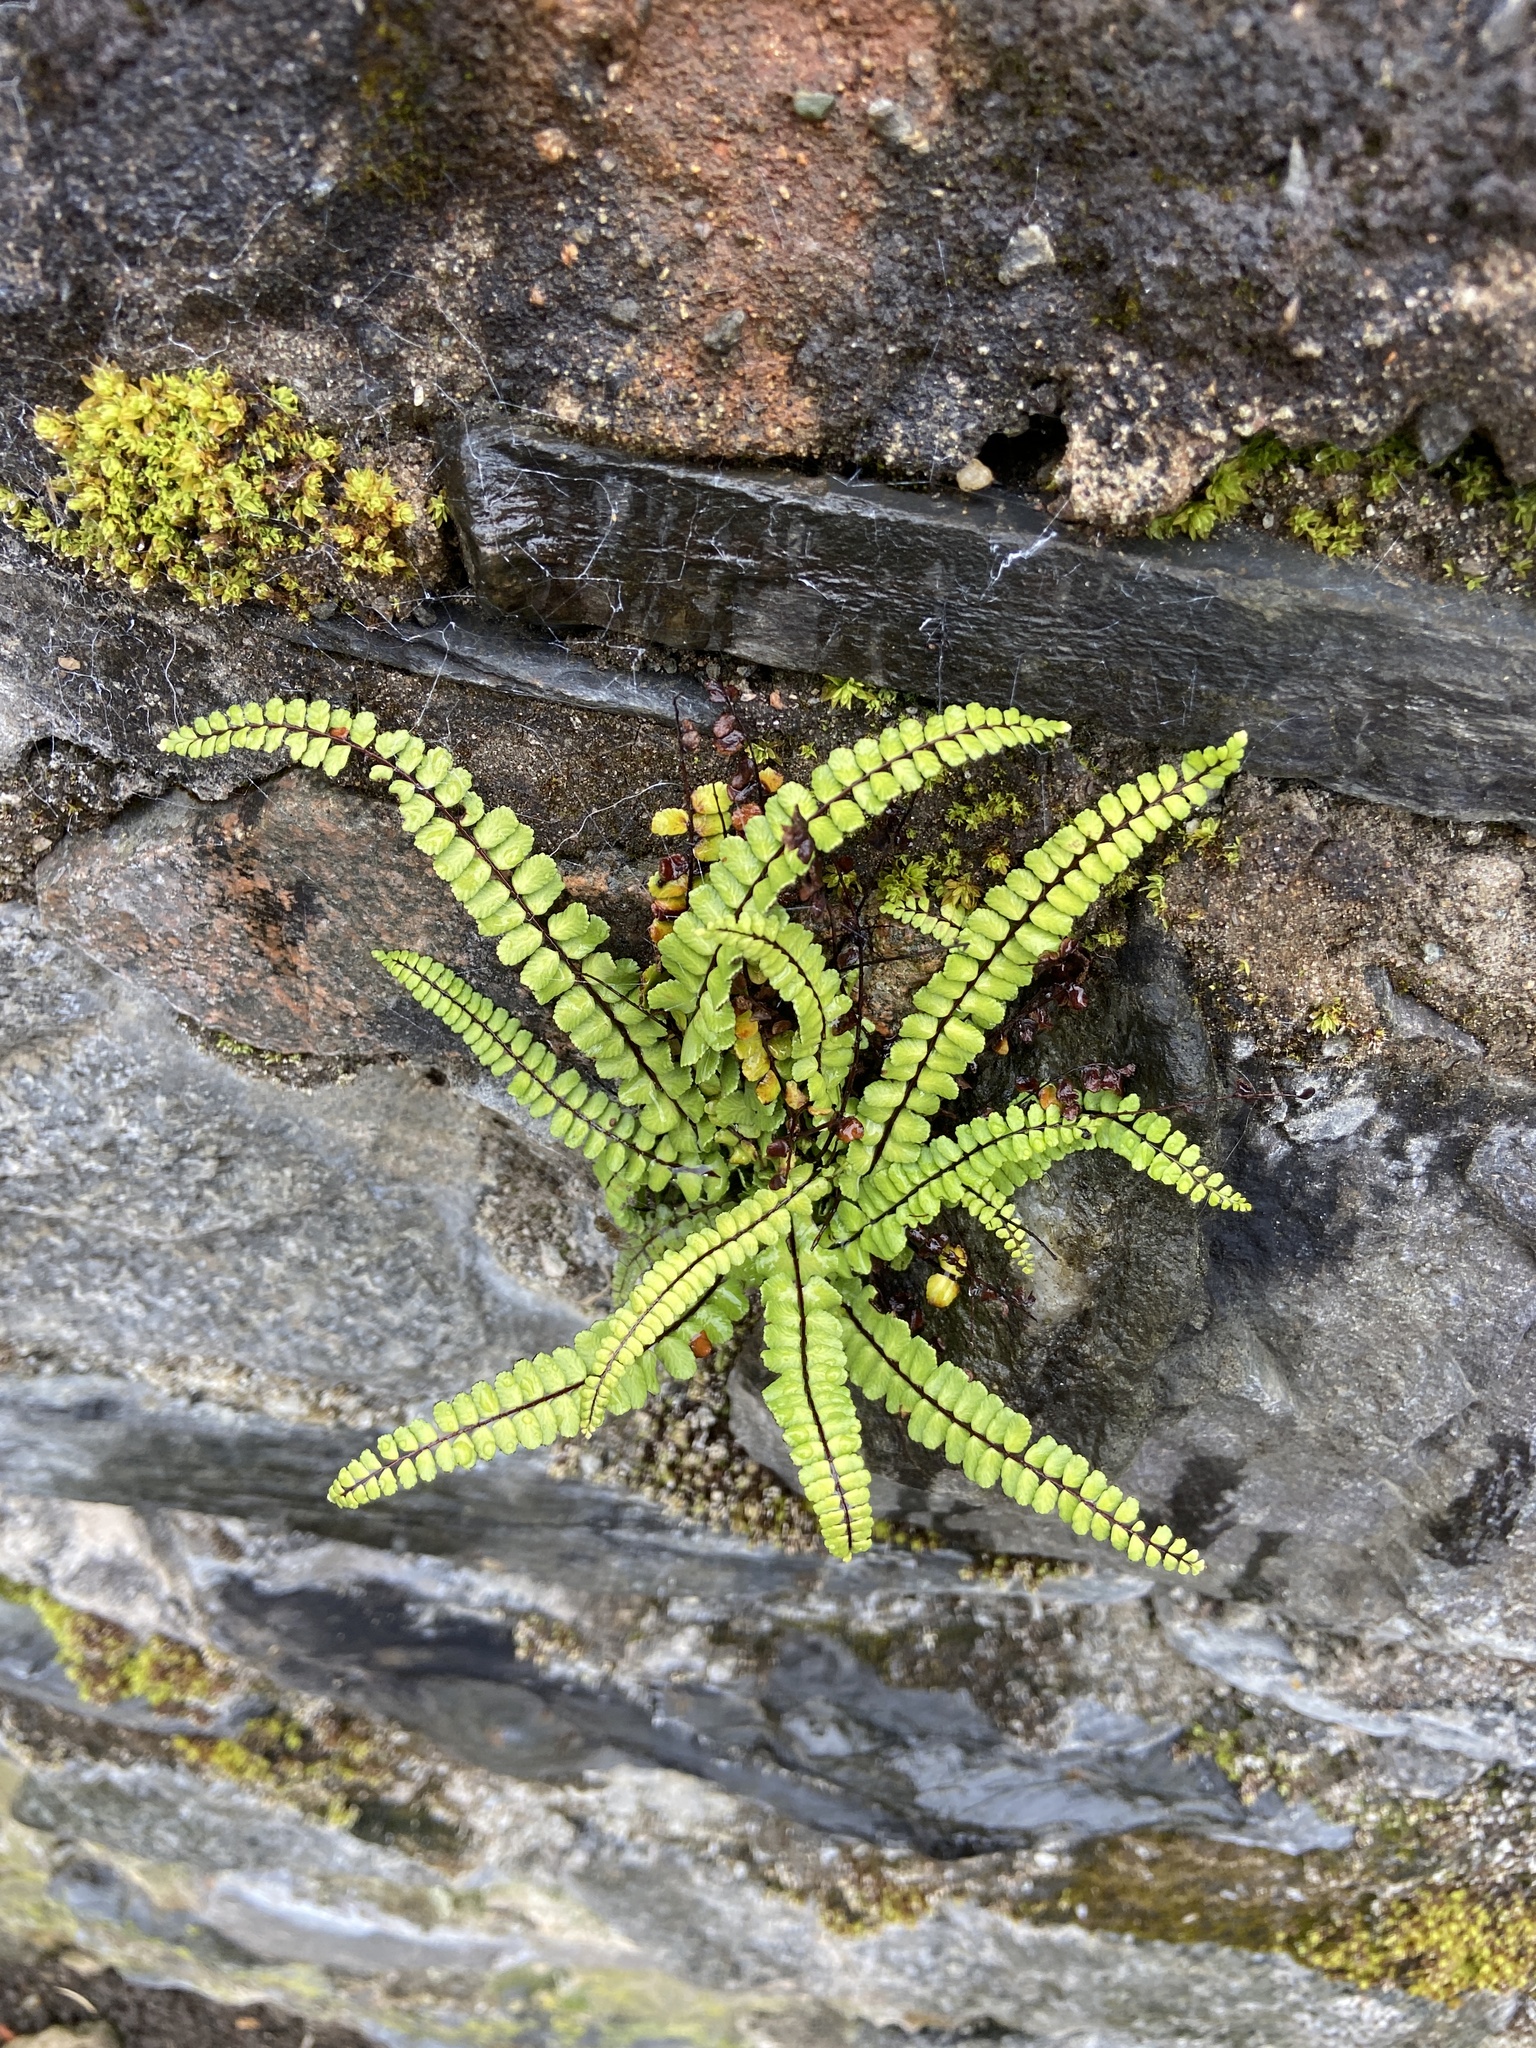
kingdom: Plantae
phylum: Tracheophyta
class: Polypodiopsida
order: Polypodiales
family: Aspleniaceae
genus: Asplenium
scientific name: Asplenium trichomanes
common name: Maidenhair spleenwort
